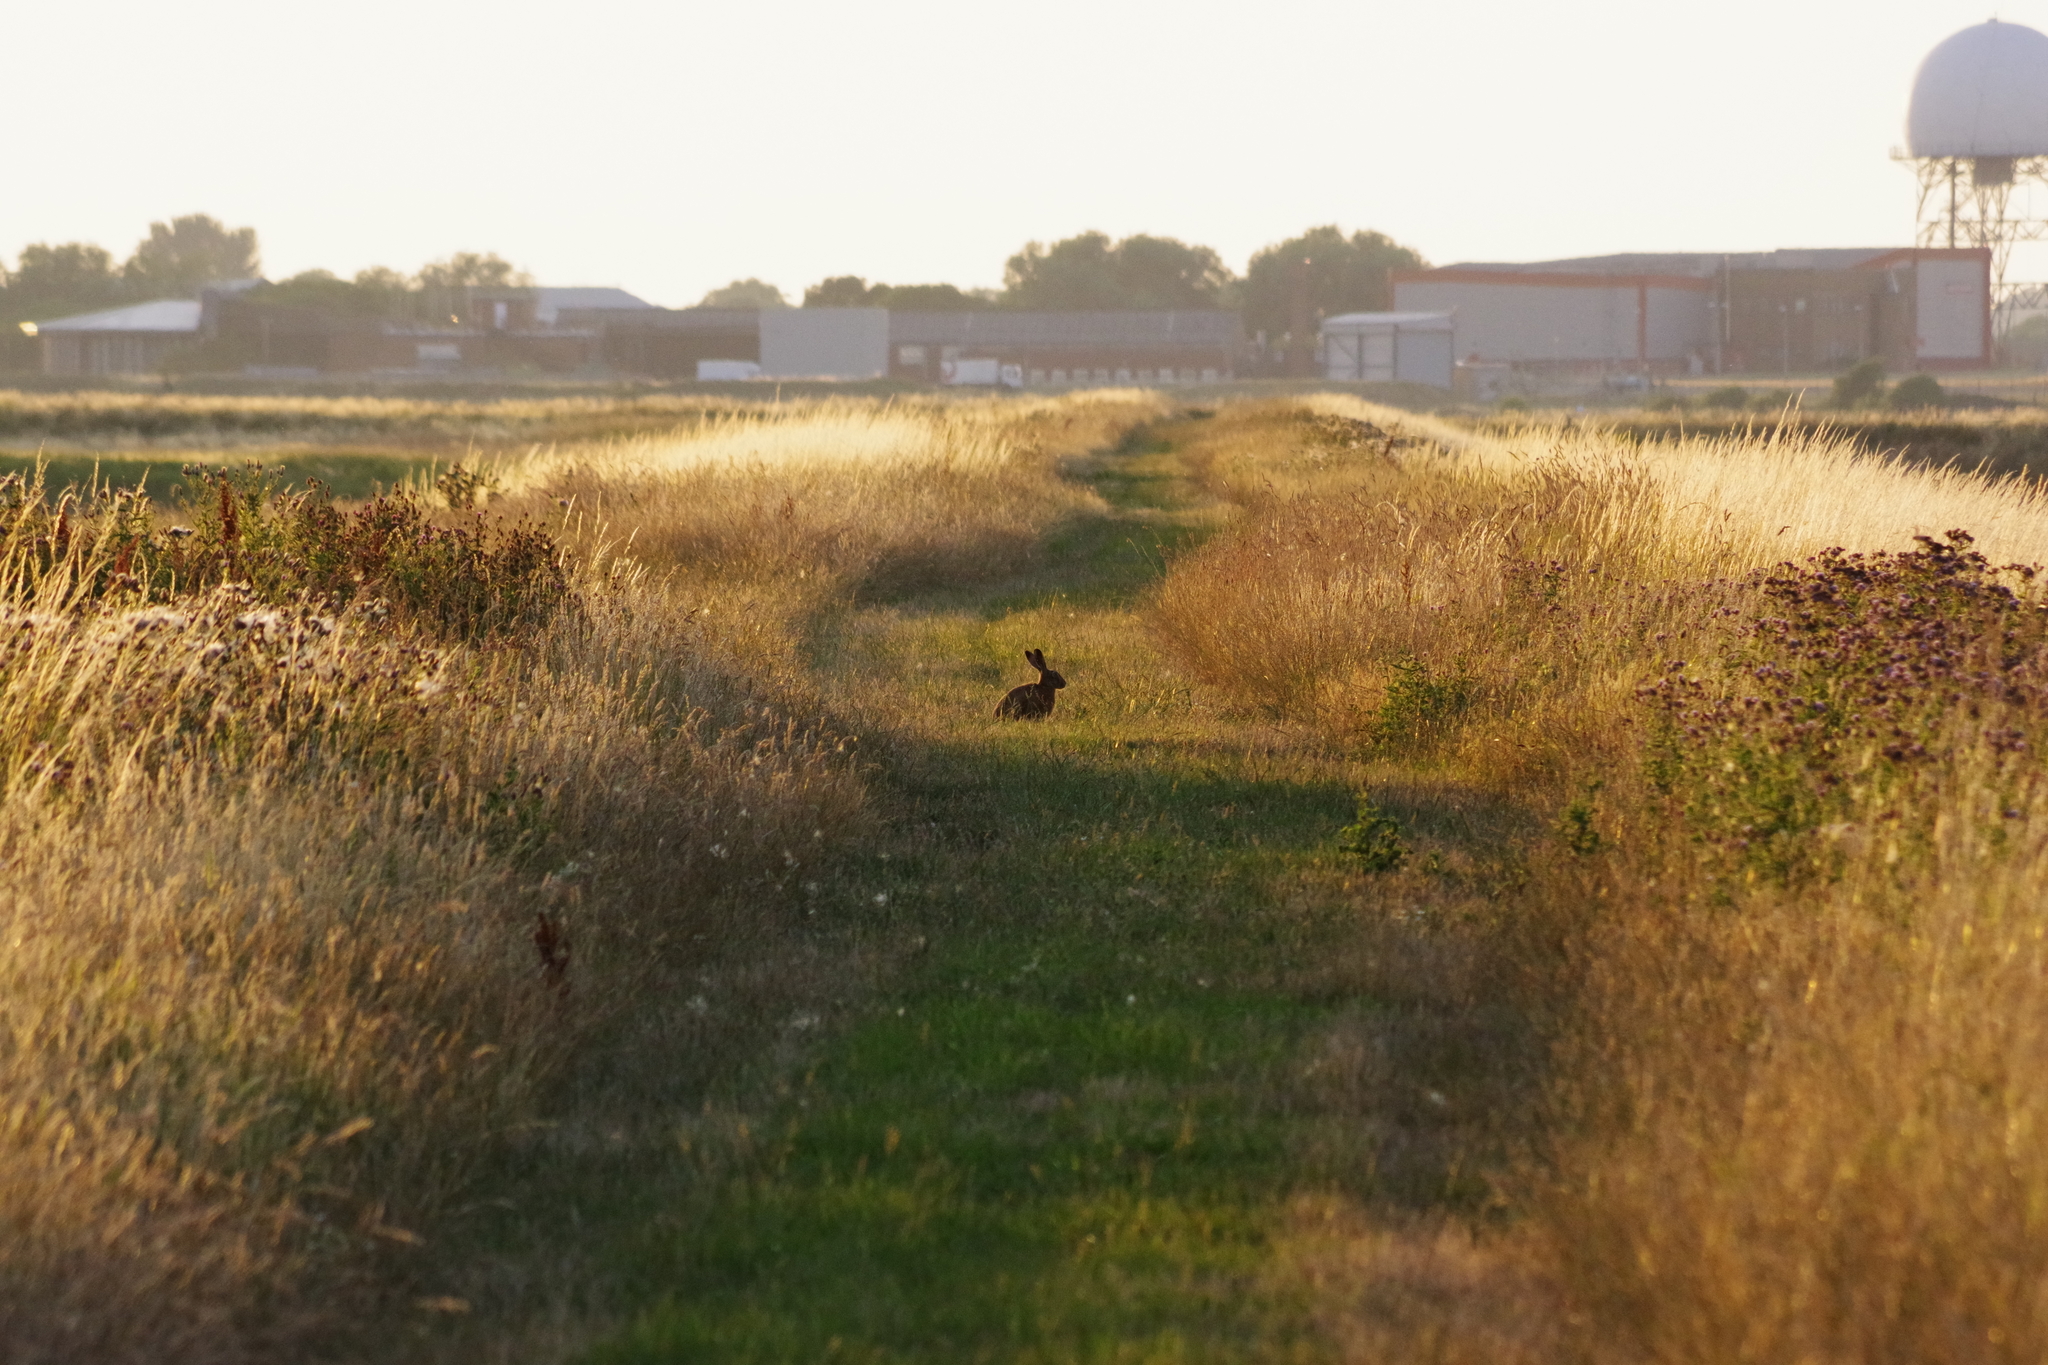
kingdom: Animalia
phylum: Chordata
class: Mammalia
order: Lagomorpha
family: Leporidae
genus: Lepus
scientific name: Lepus europaeus
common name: European hare
